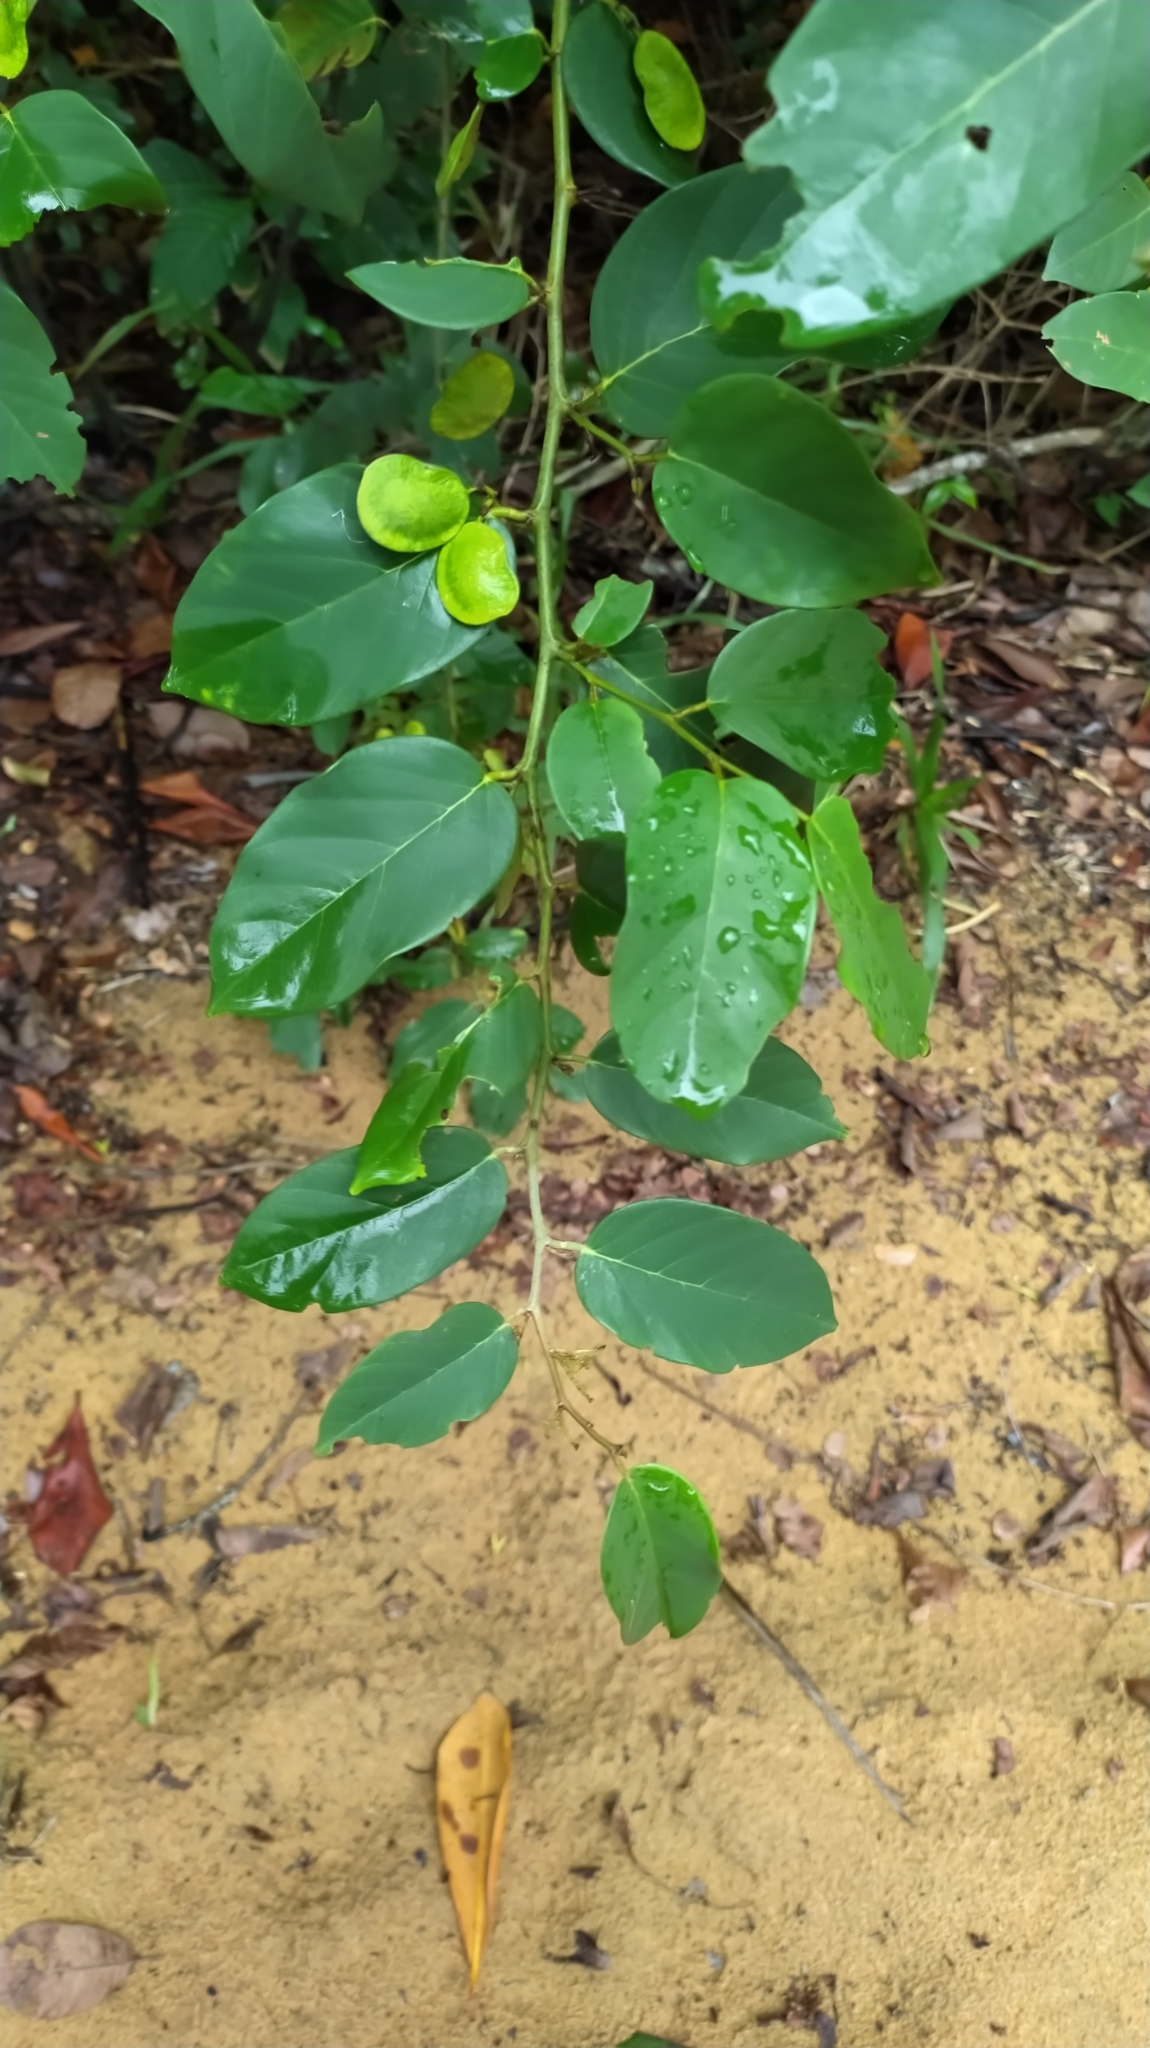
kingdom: Plantae
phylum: Tracheophyta
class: Magnoliopsida
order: Fabales
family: Fabaceae
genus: Dalbergia
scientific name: Dalbergia ecastaphyllum
